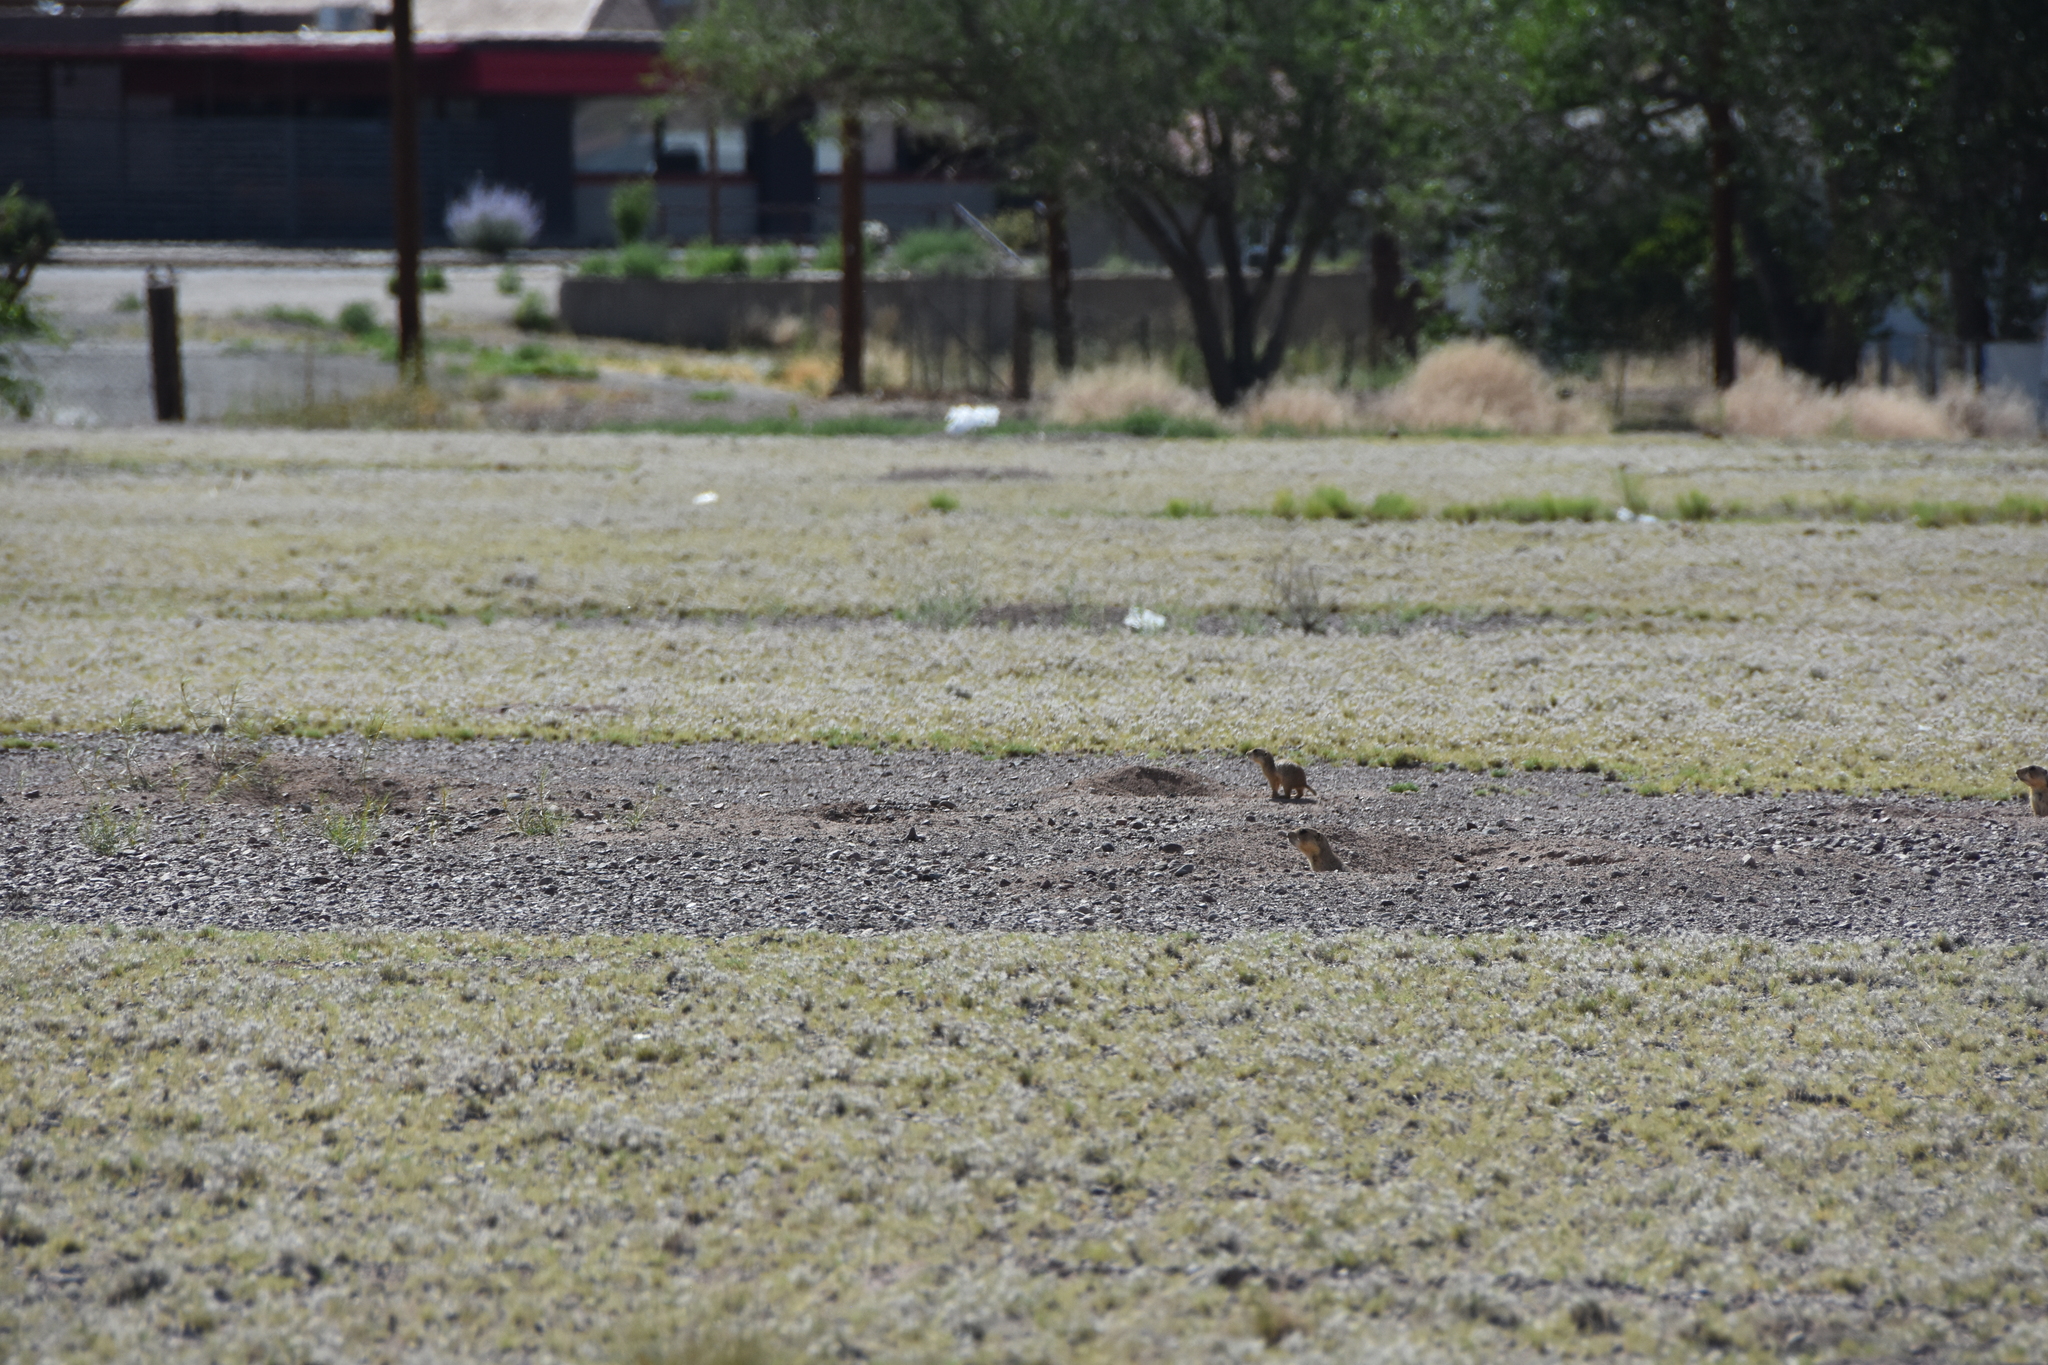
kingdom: Animalia
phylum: Chordata
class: Mammalia
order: Rodentia
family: Sciuridae
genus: Cynomys
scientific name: Cynomys gunnisoni
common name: Gunnison's prairie dog
